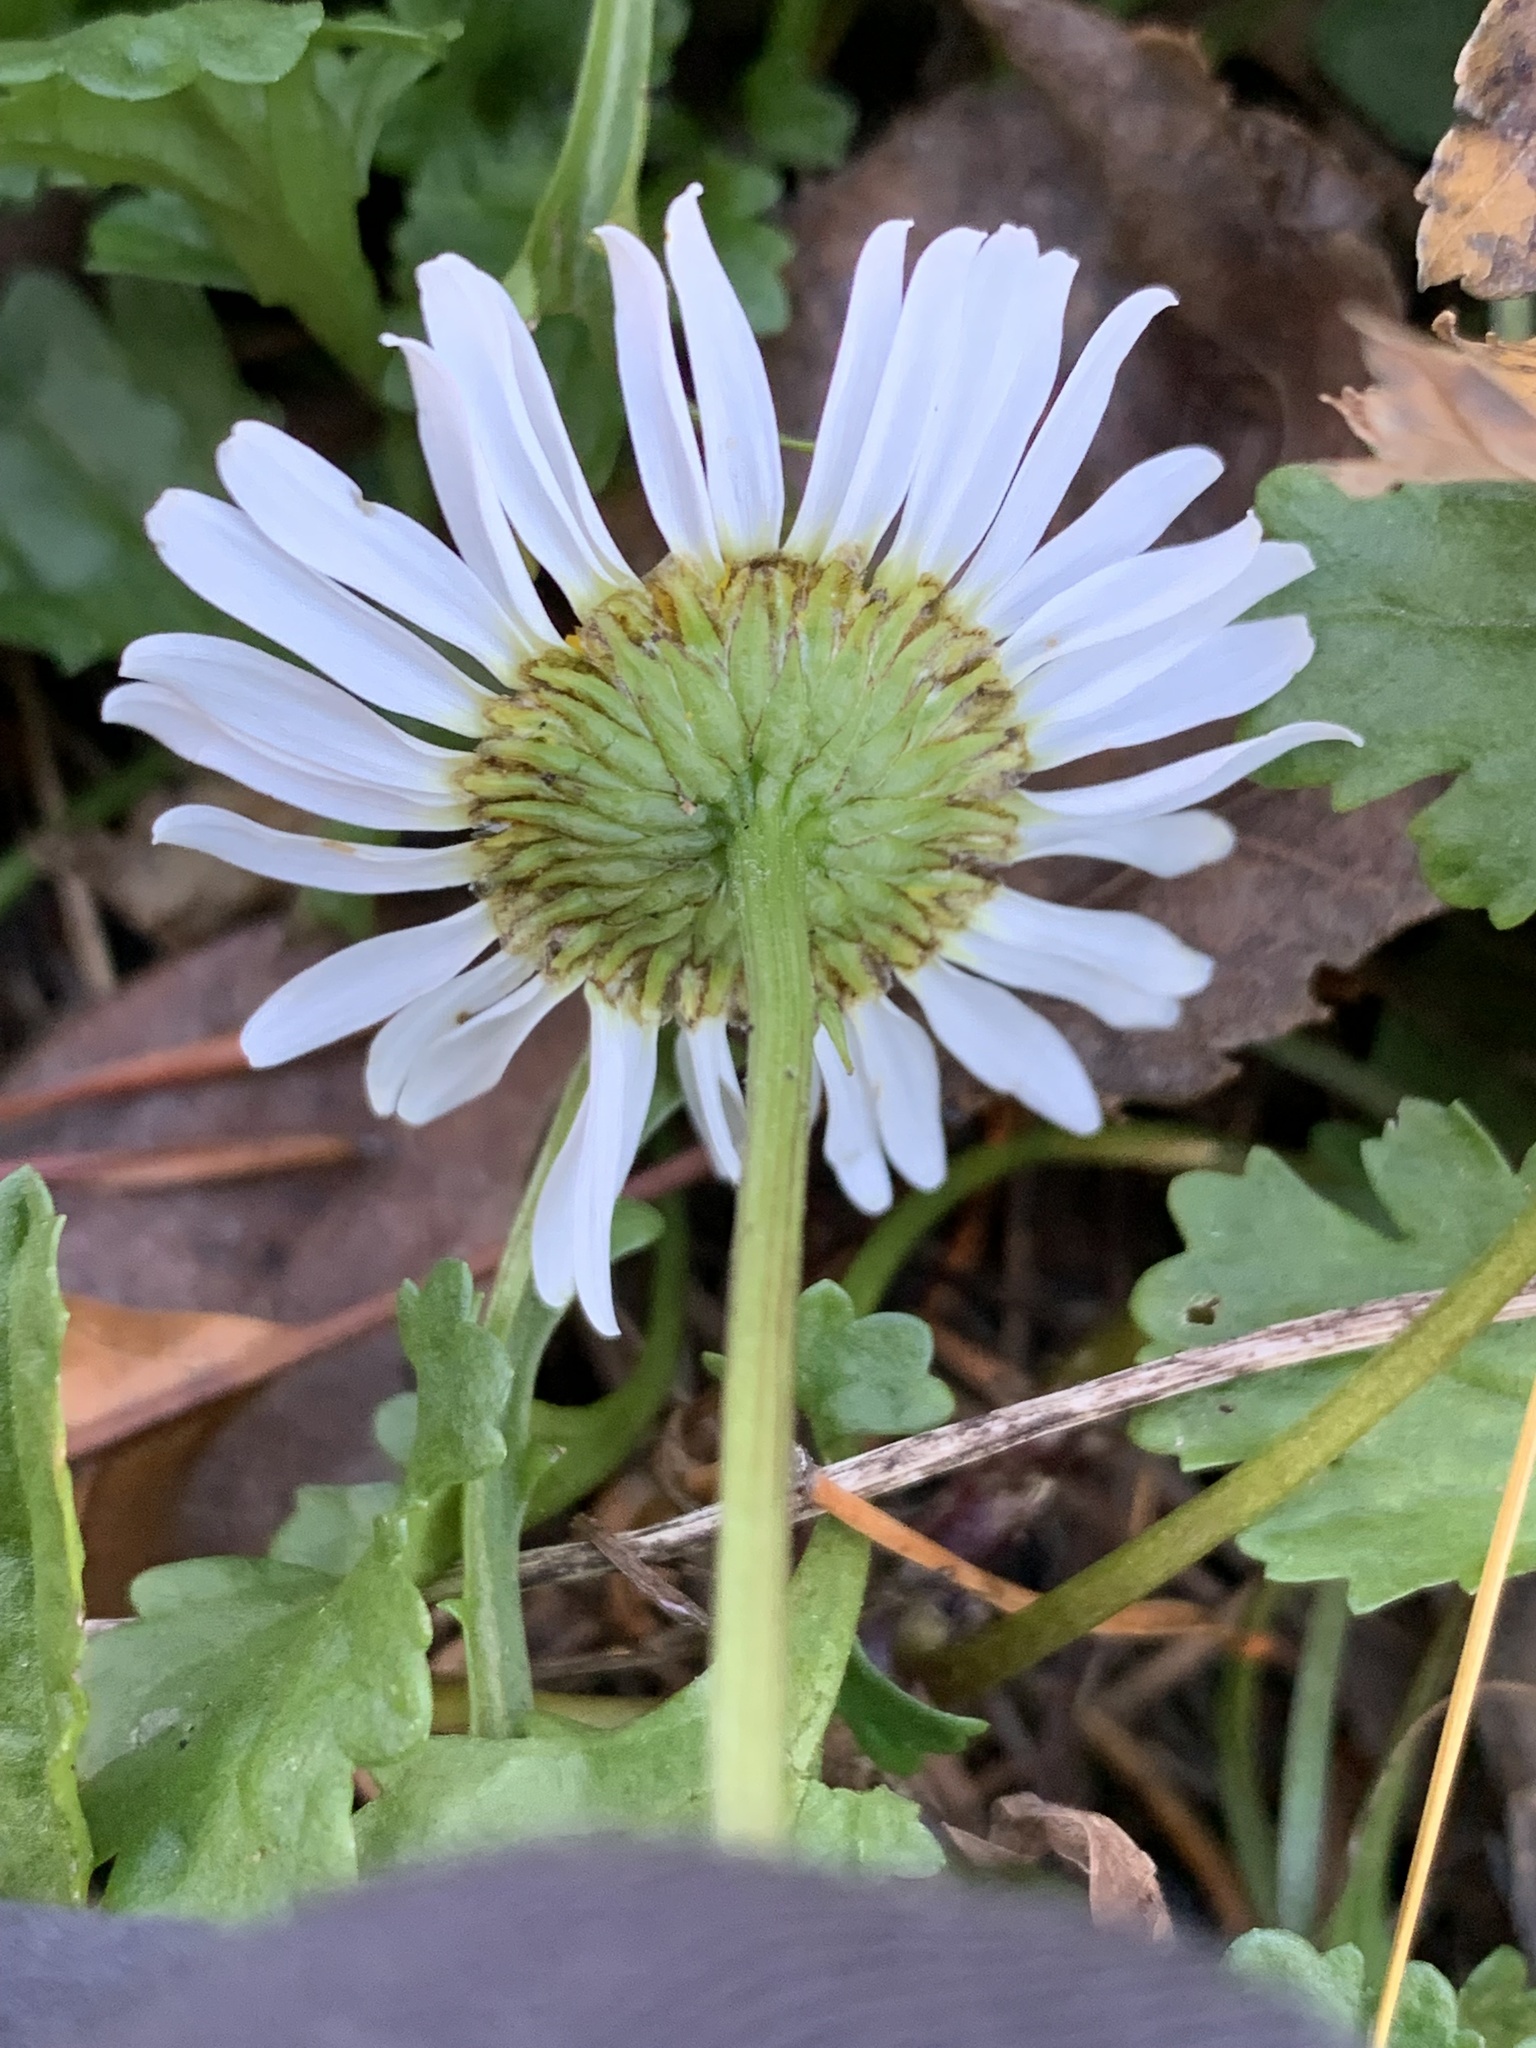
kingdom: Plantae
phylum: Tracheophyta
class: Magnoliopsida
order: Asterales
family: Asteraceae
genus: Leucanthemum
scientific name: Leucanthemum vulgare
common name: Oxeye daisy
